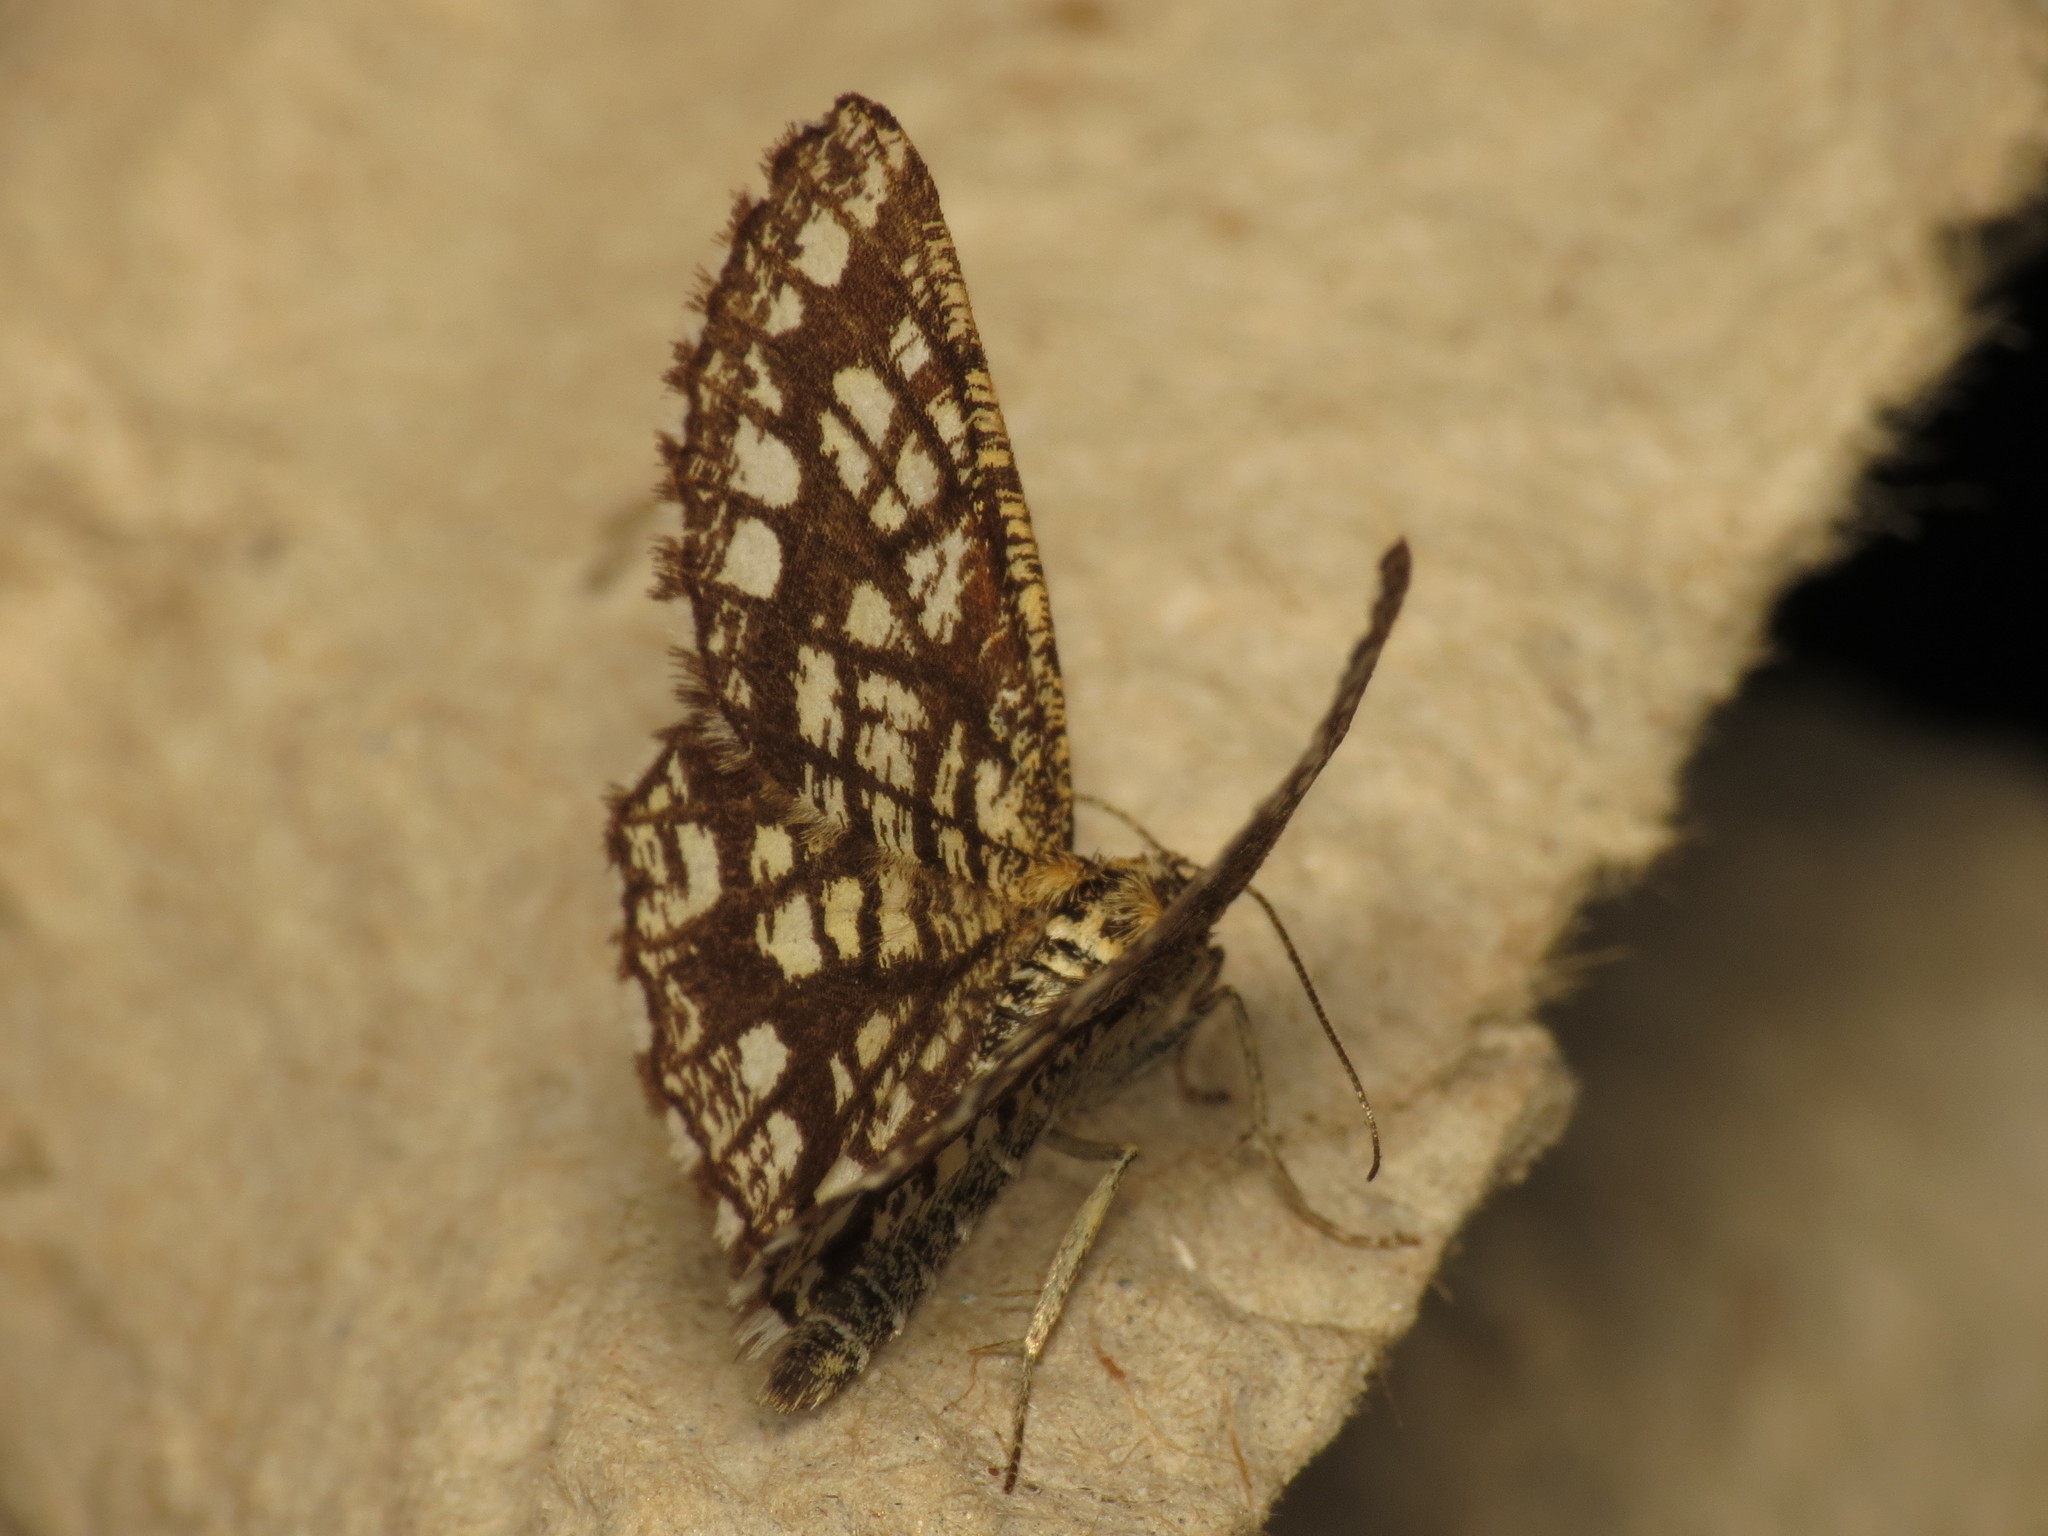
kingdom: Animalia
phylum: Arthropoda
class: Insecta
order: Lepidoptera
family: Geometridae
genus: Chiasmia
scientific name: Chiasmia clathrata
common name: Latticed heath
